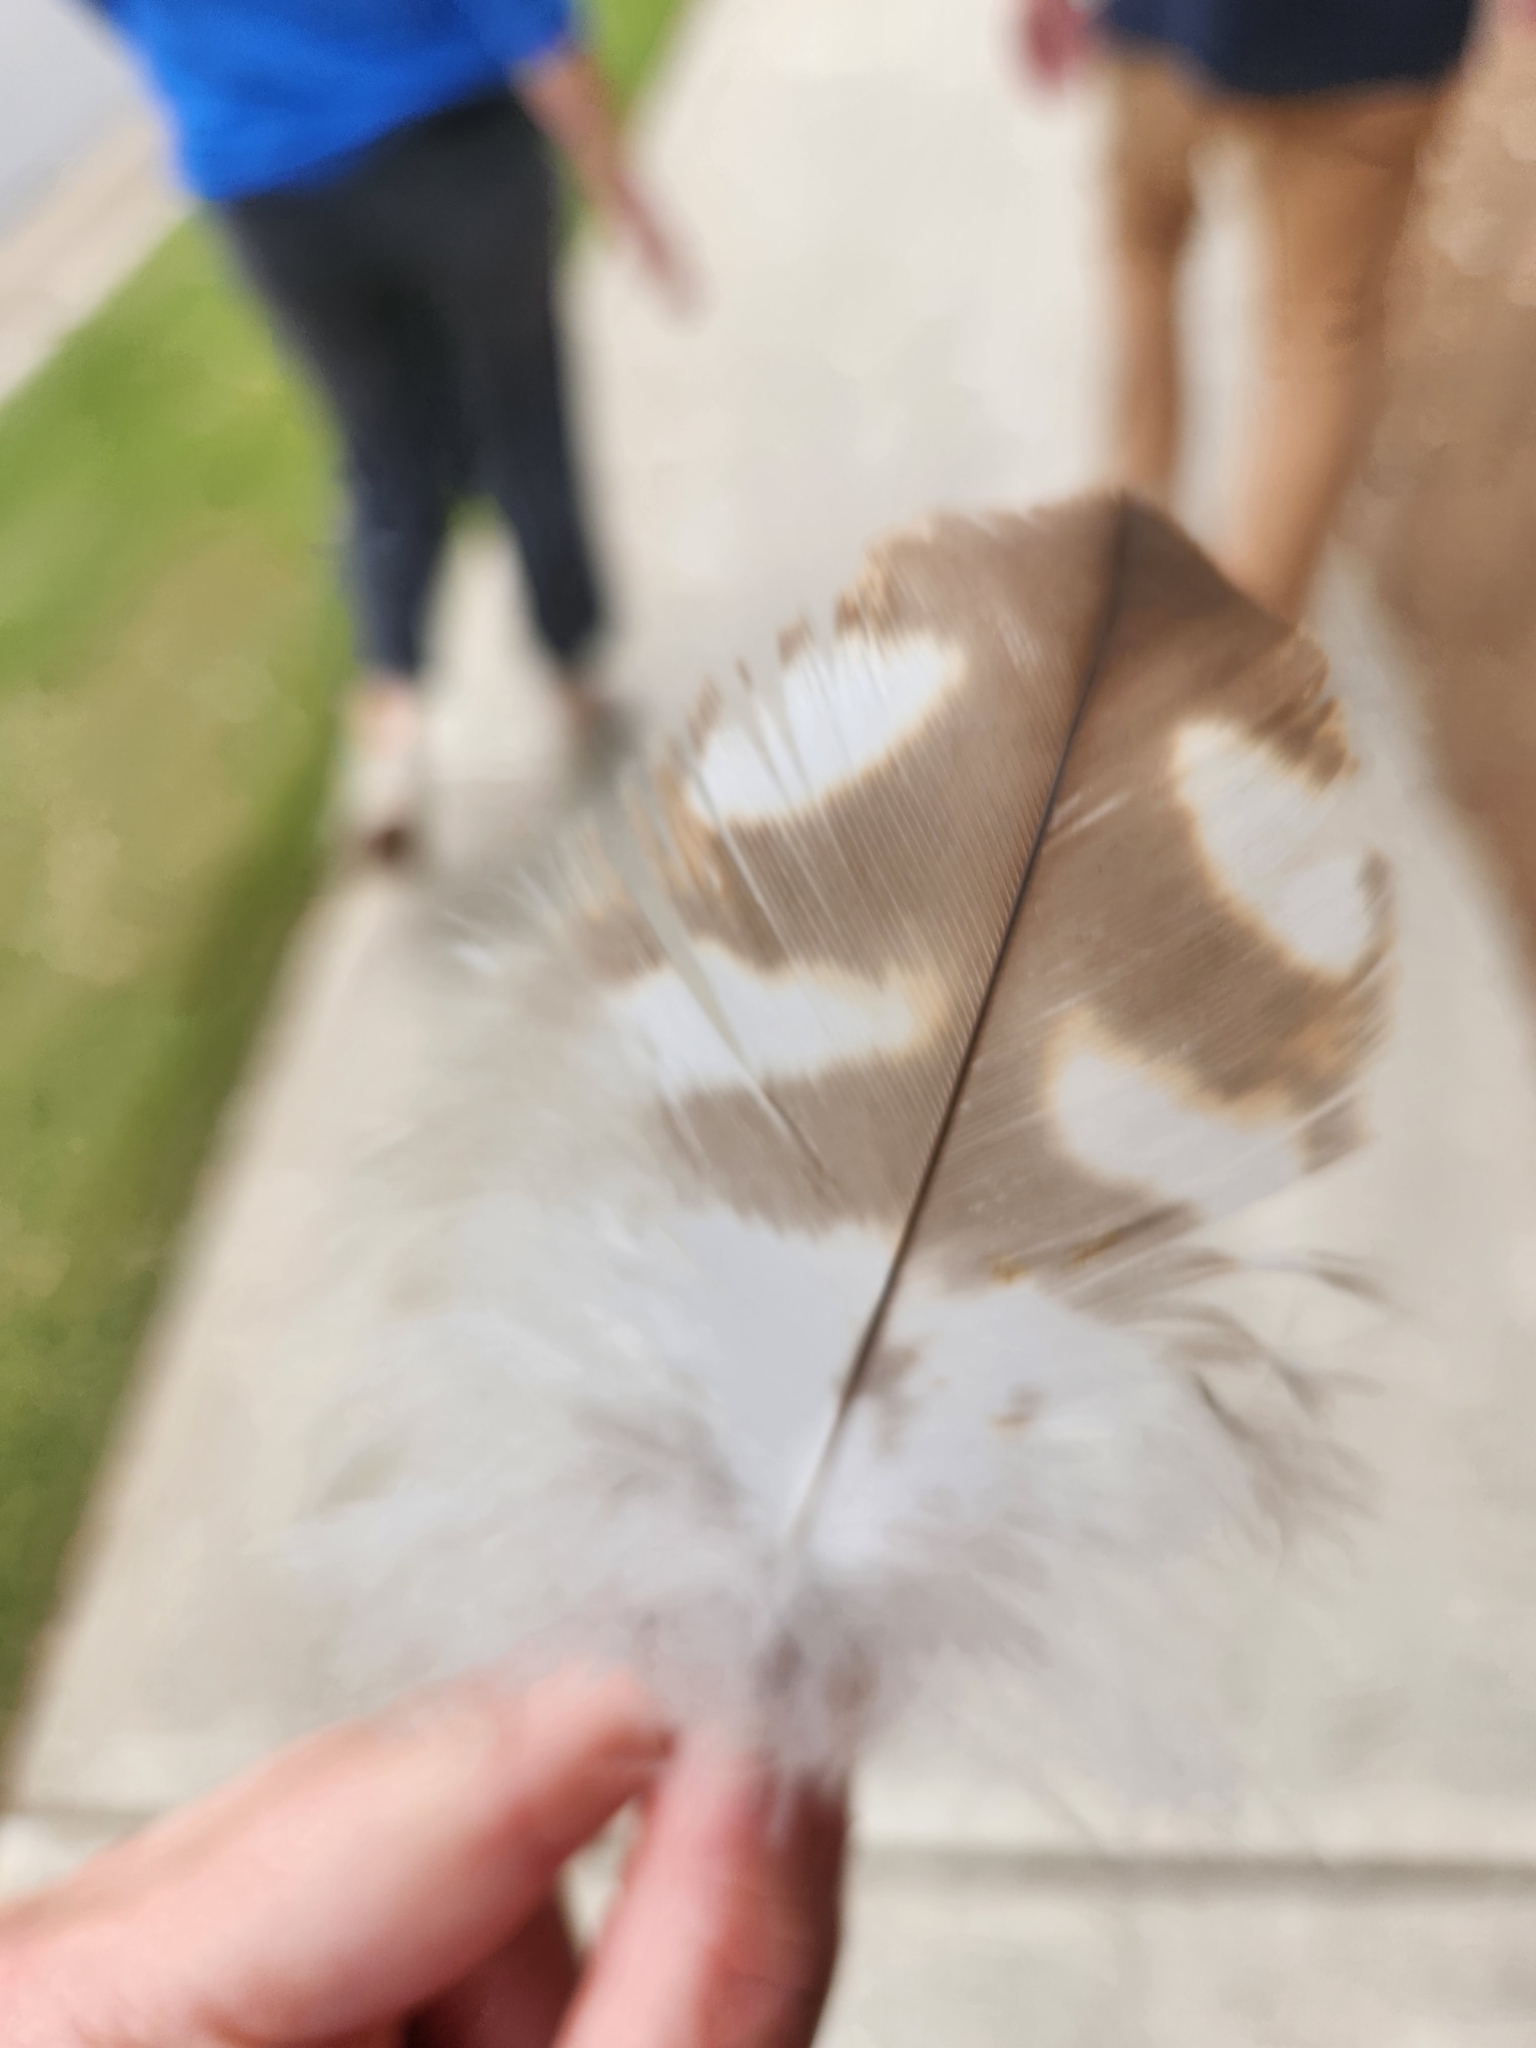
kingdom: Animalia
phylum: Chordata
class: Aves
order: Accipitriformes
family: Accipitridae
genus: Buteo
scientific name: Buteo jamaicensis
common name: Red-tailed hawk
